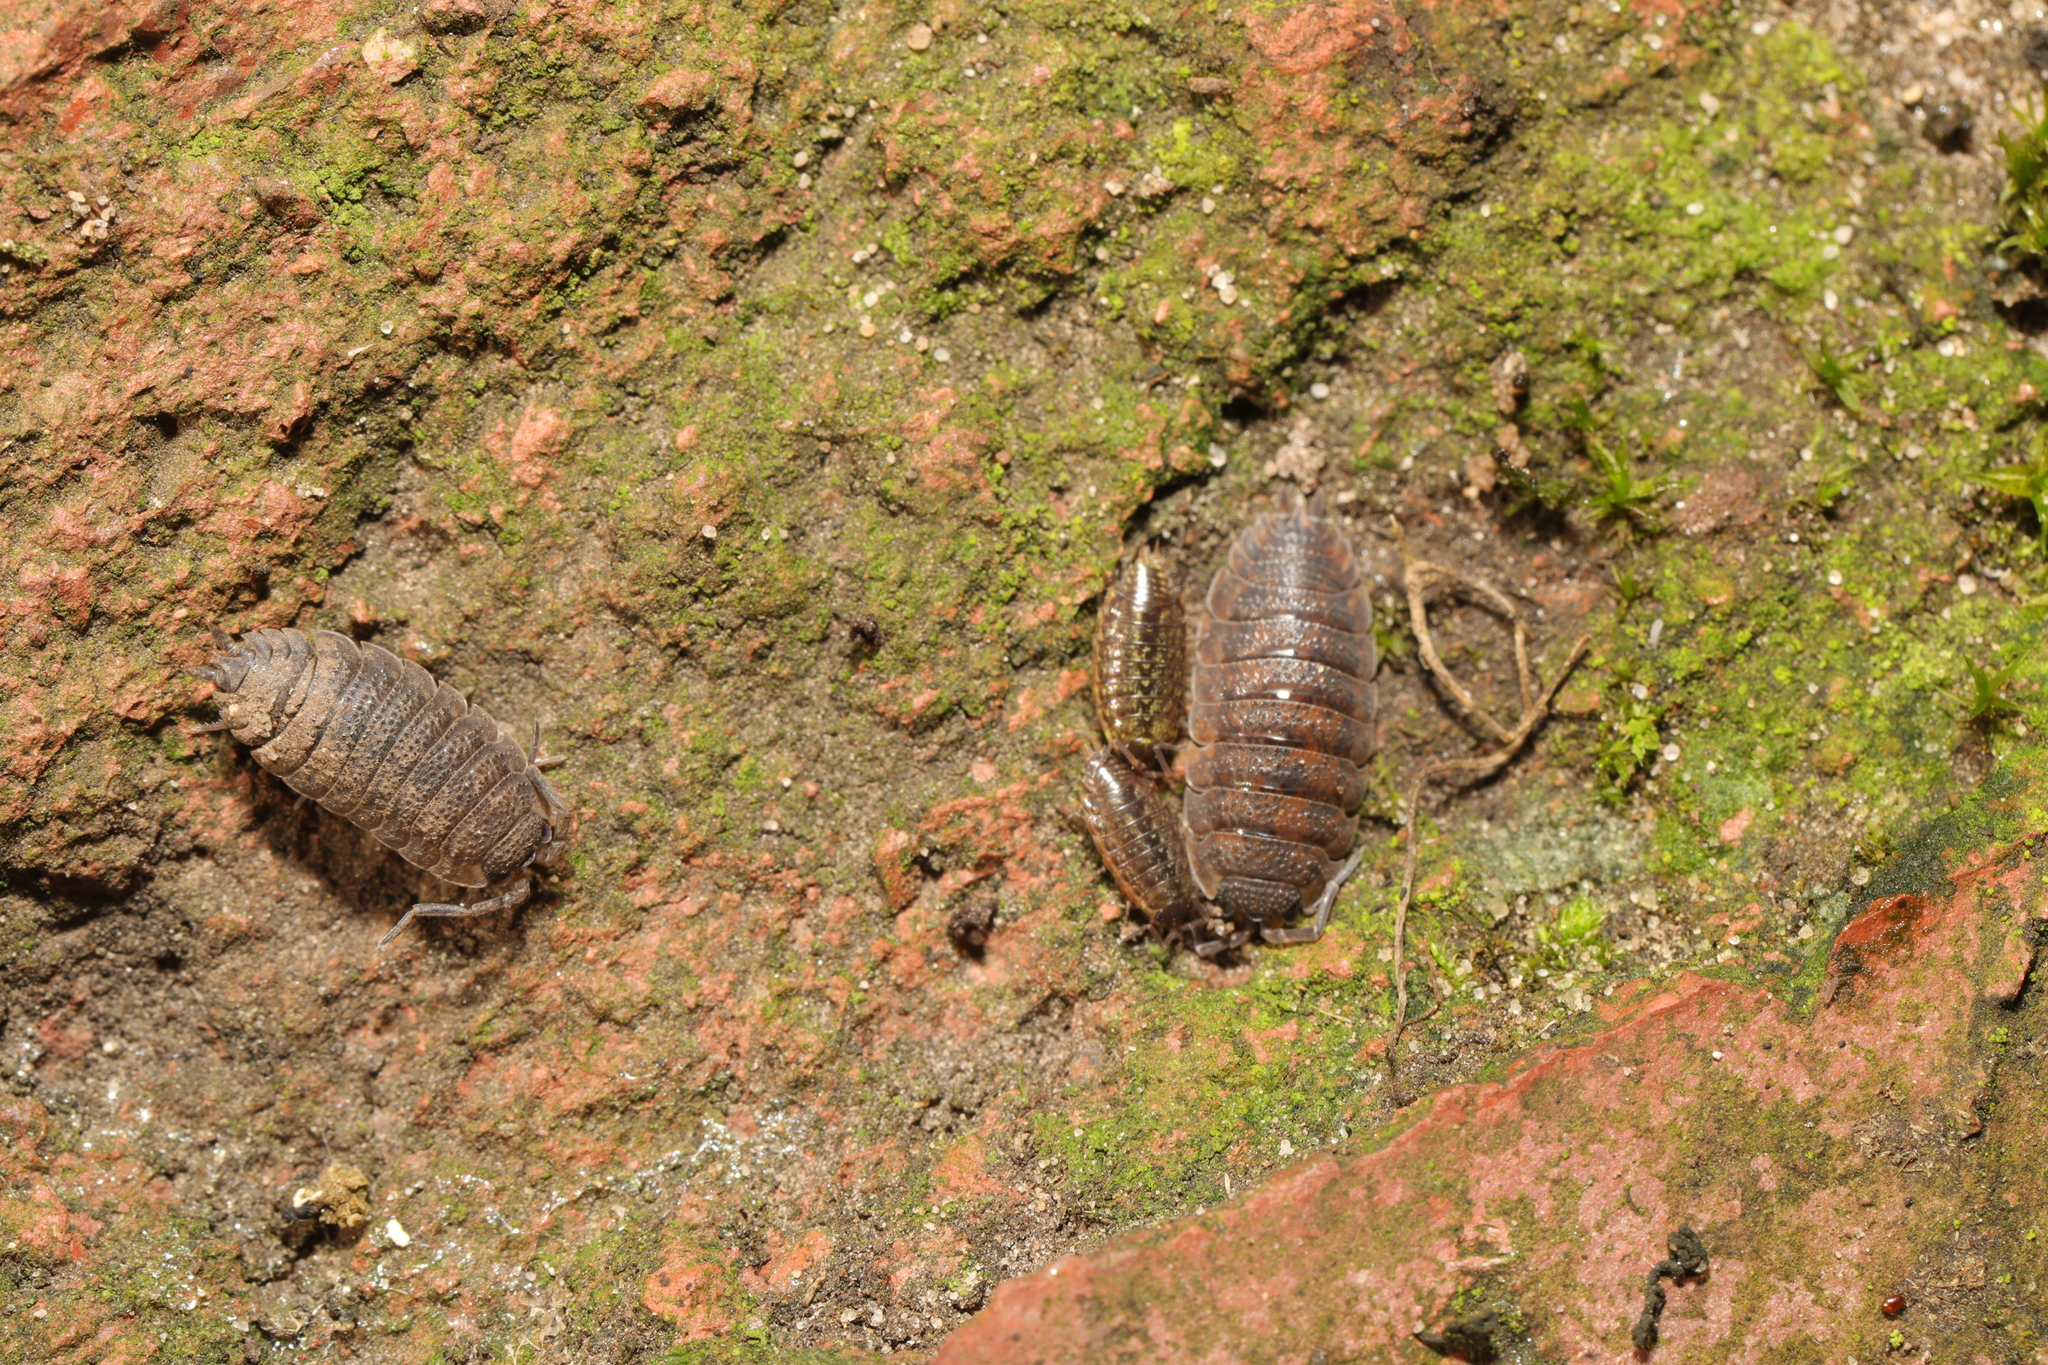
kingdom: Animalia
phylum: Arthropoda
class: Malacostraca
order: Isopoda
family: Porcellionidae
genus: Porcellio
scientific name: Porcellio scaber
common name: Common rough woodlouse
